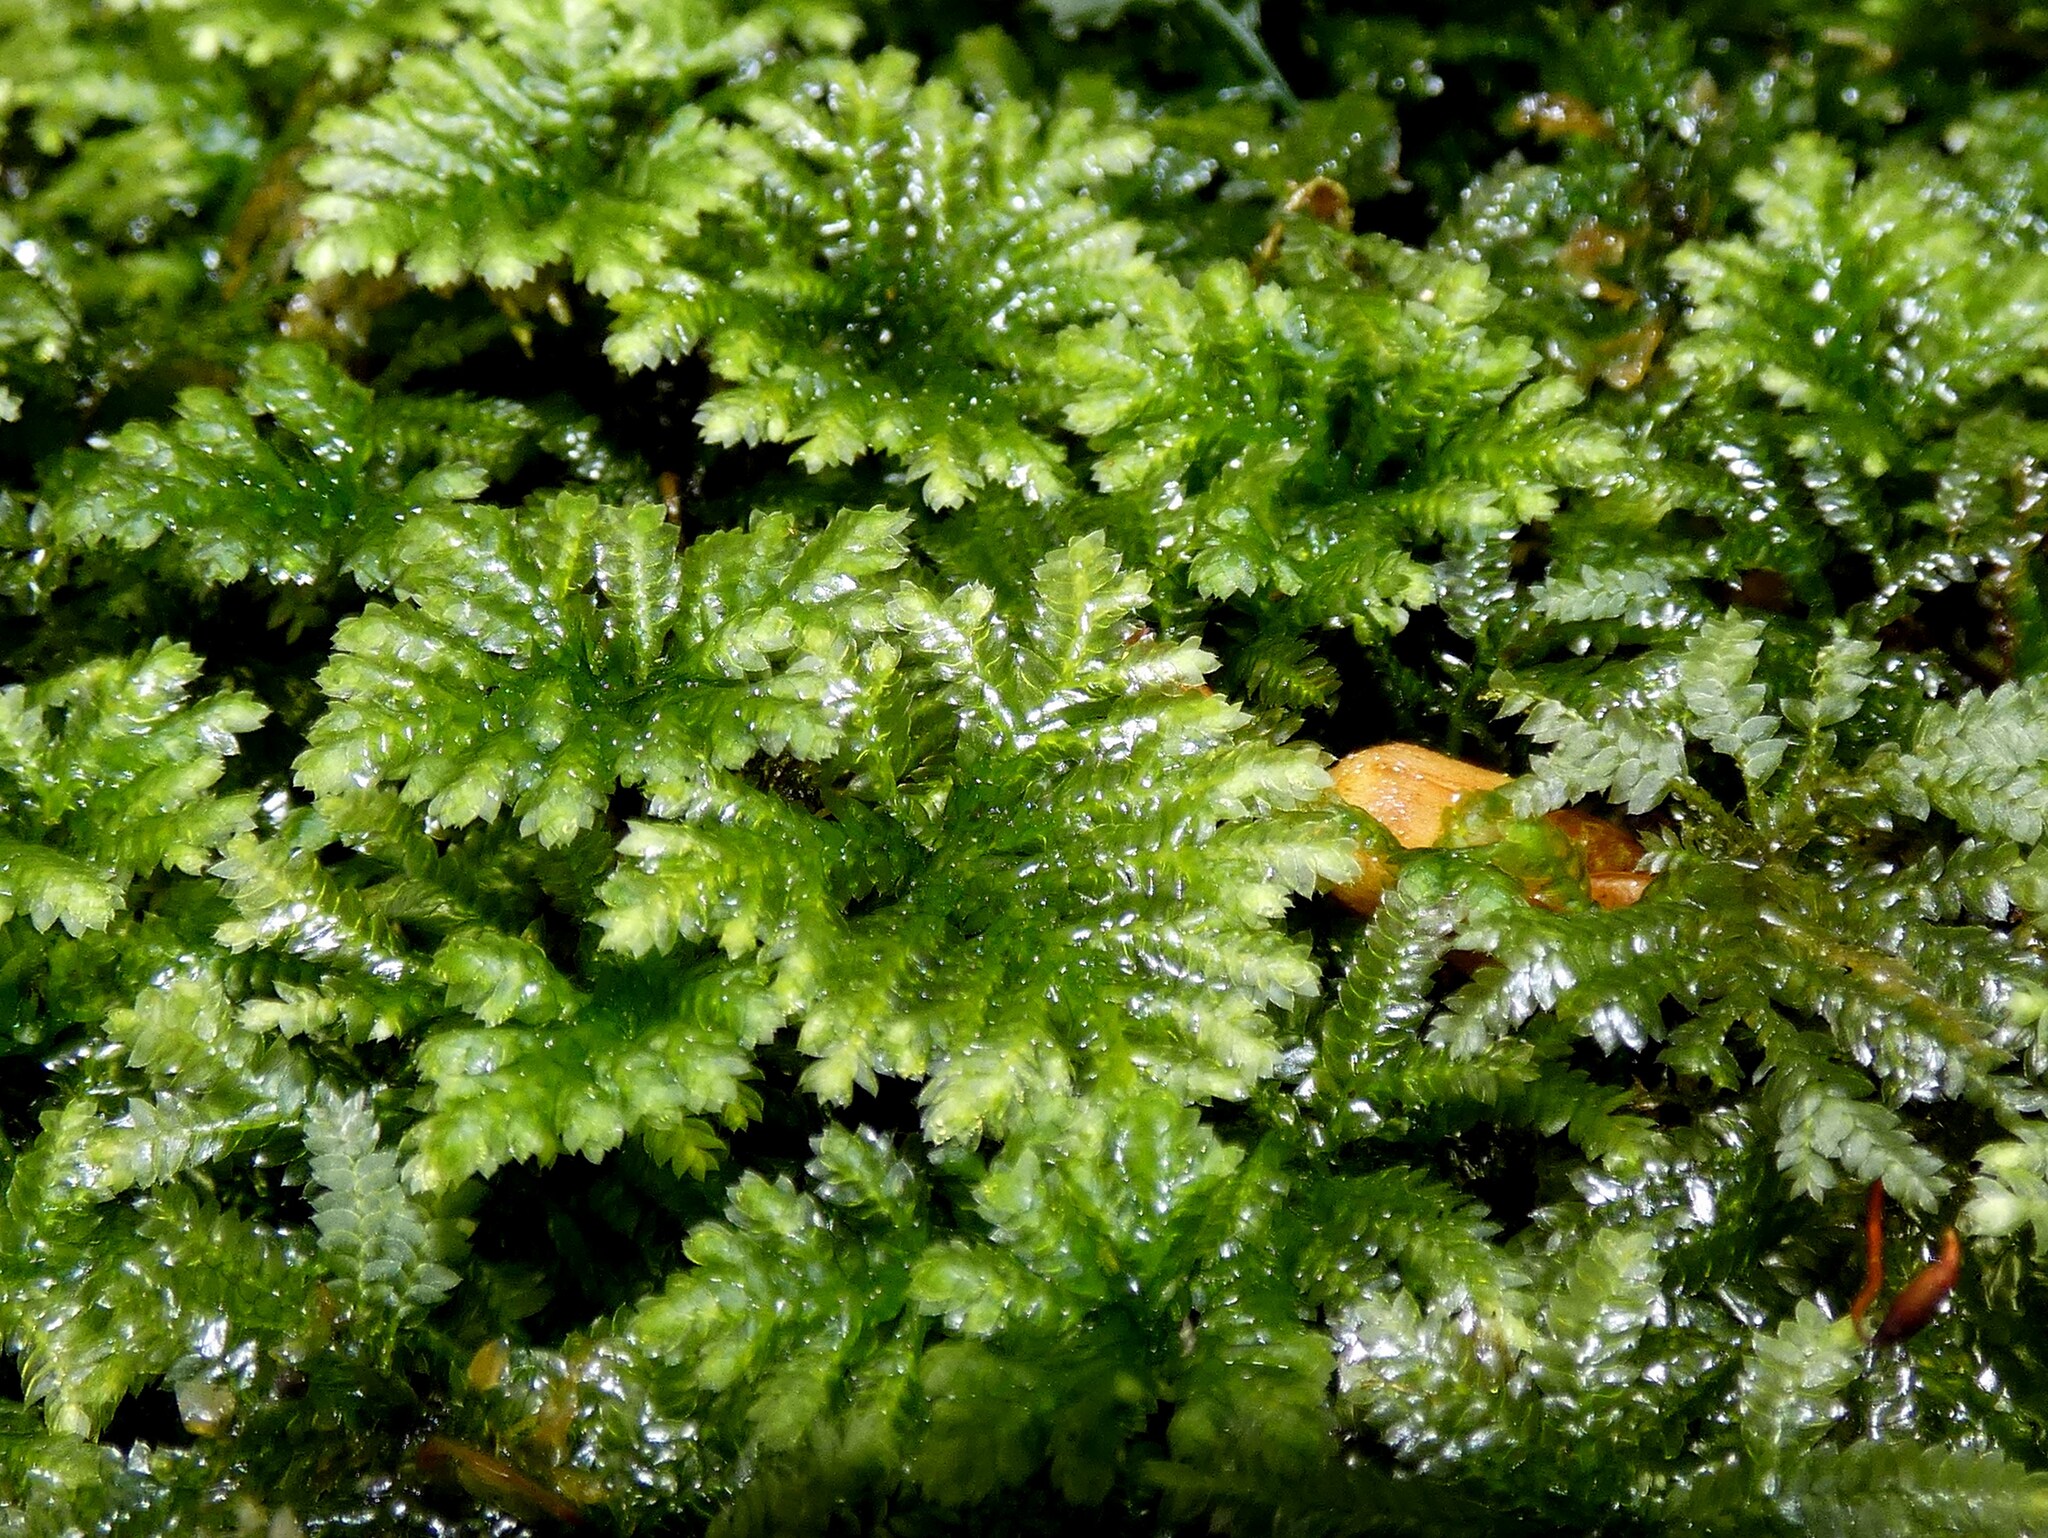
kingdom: Plantae
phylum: Bryophyta
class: Bryopsida
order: Hypopterygiales
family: Hypopterygiaceae
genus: Hypopterygium
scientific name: Hypopterygium tamarisci
